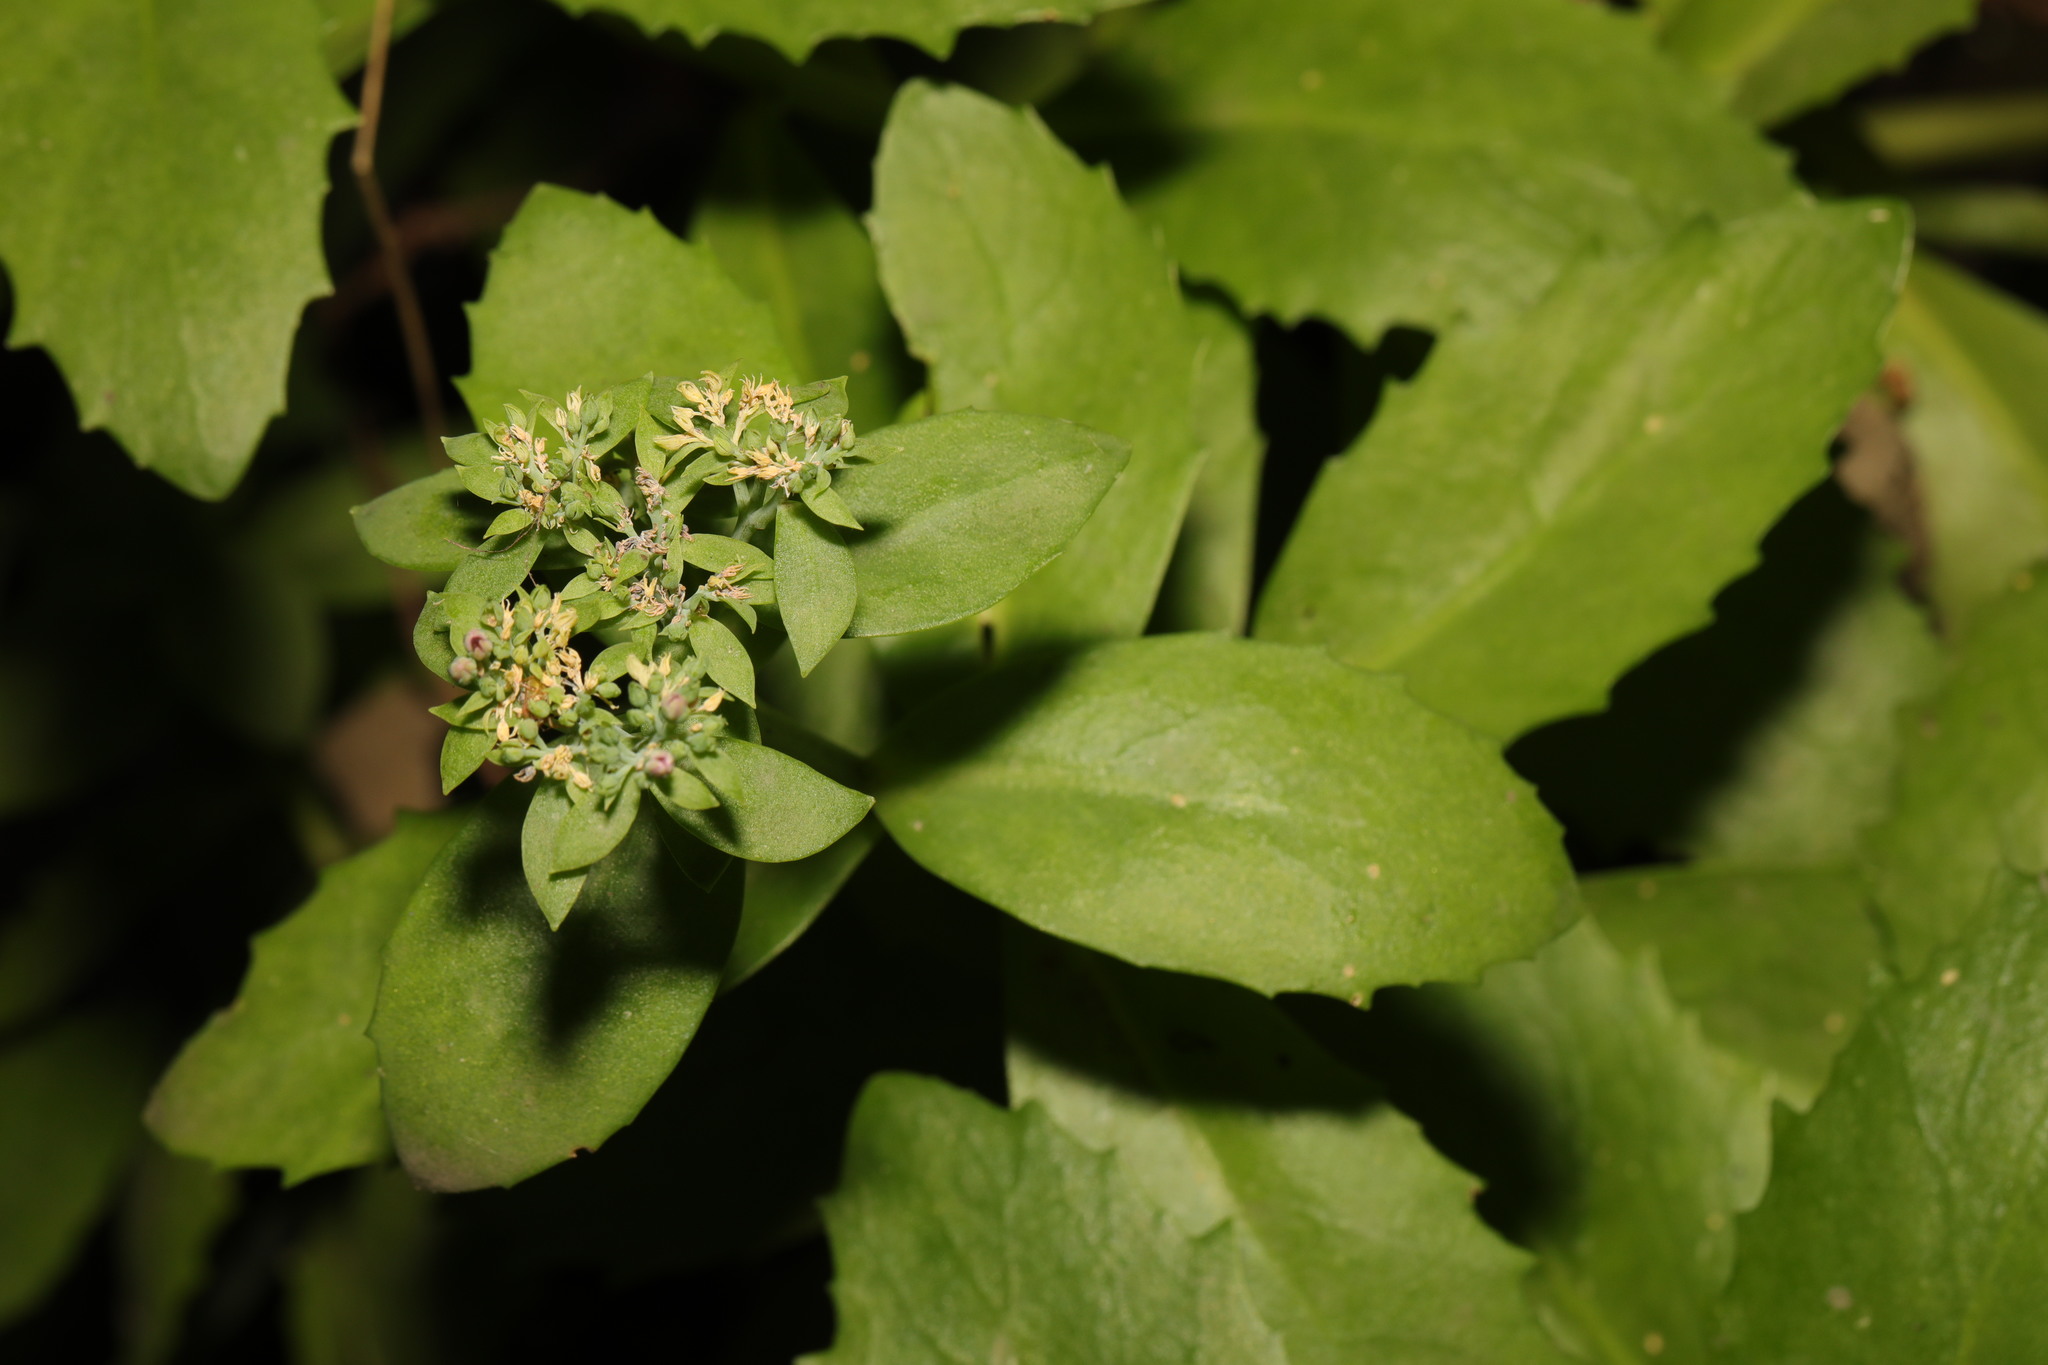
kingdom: Plantae
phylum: Tracheophyta
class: Magnoliopsida
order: Saxifragales
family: Crassulaceae
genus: Hylotelephium
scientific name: Hylotelephium
